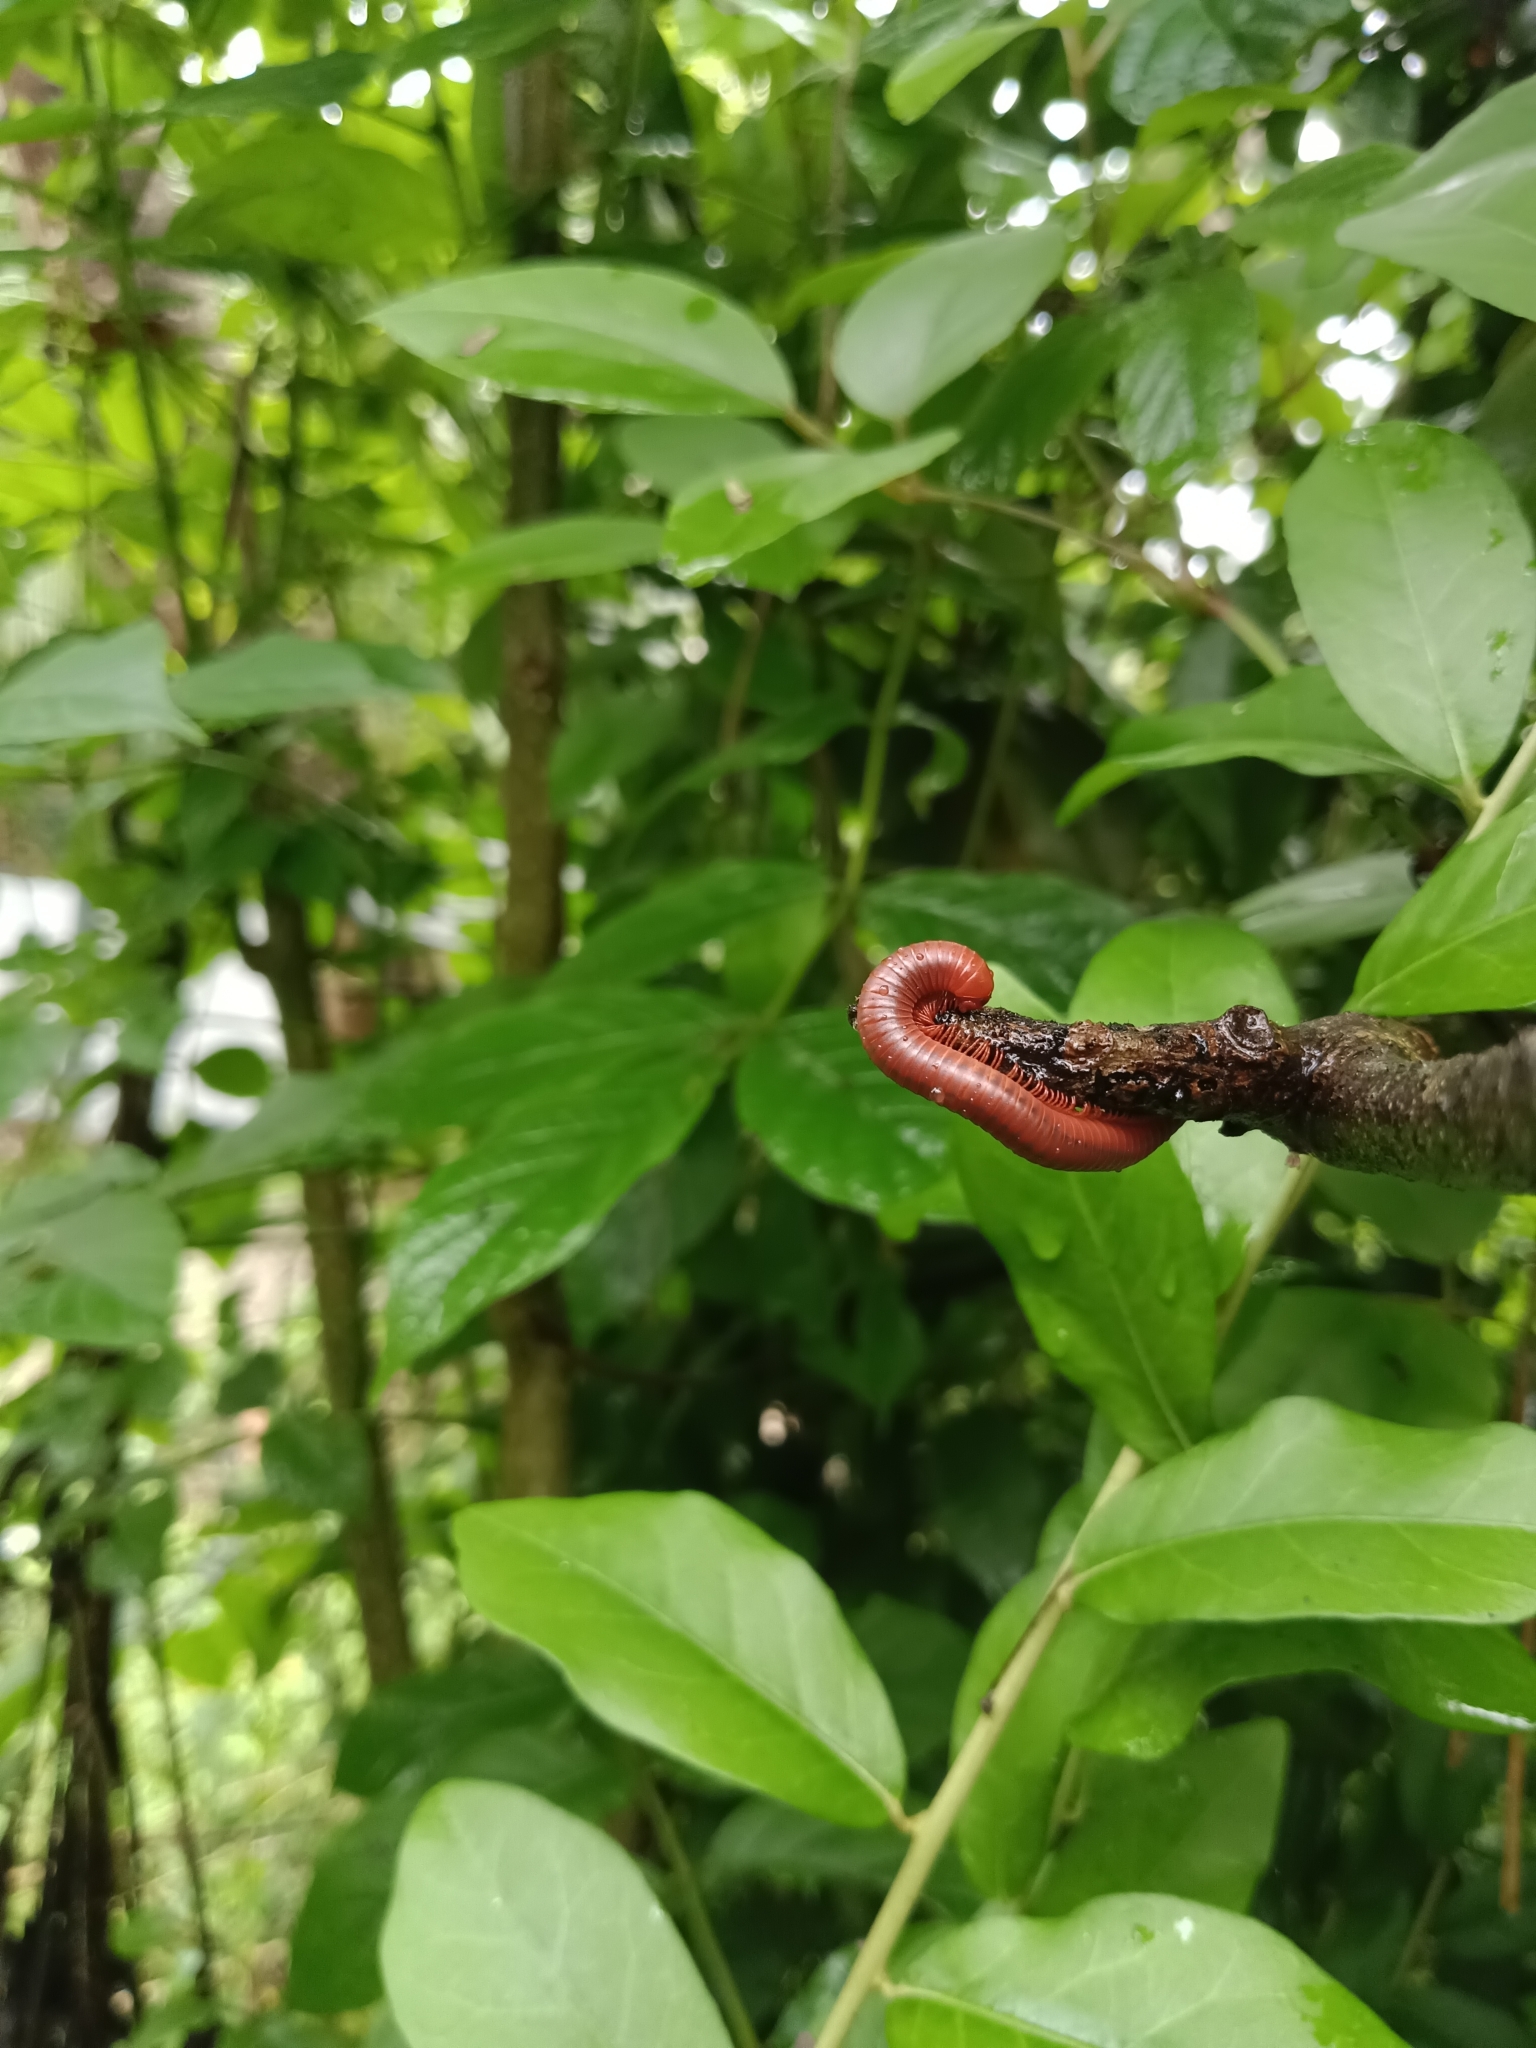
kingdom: Animalia
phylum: Arthropoda
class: Diplopoda
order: Spirobolida
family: Pachybolidae
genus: Trigoniulus
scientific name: Trigoniulus corallinus
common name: Millipede
